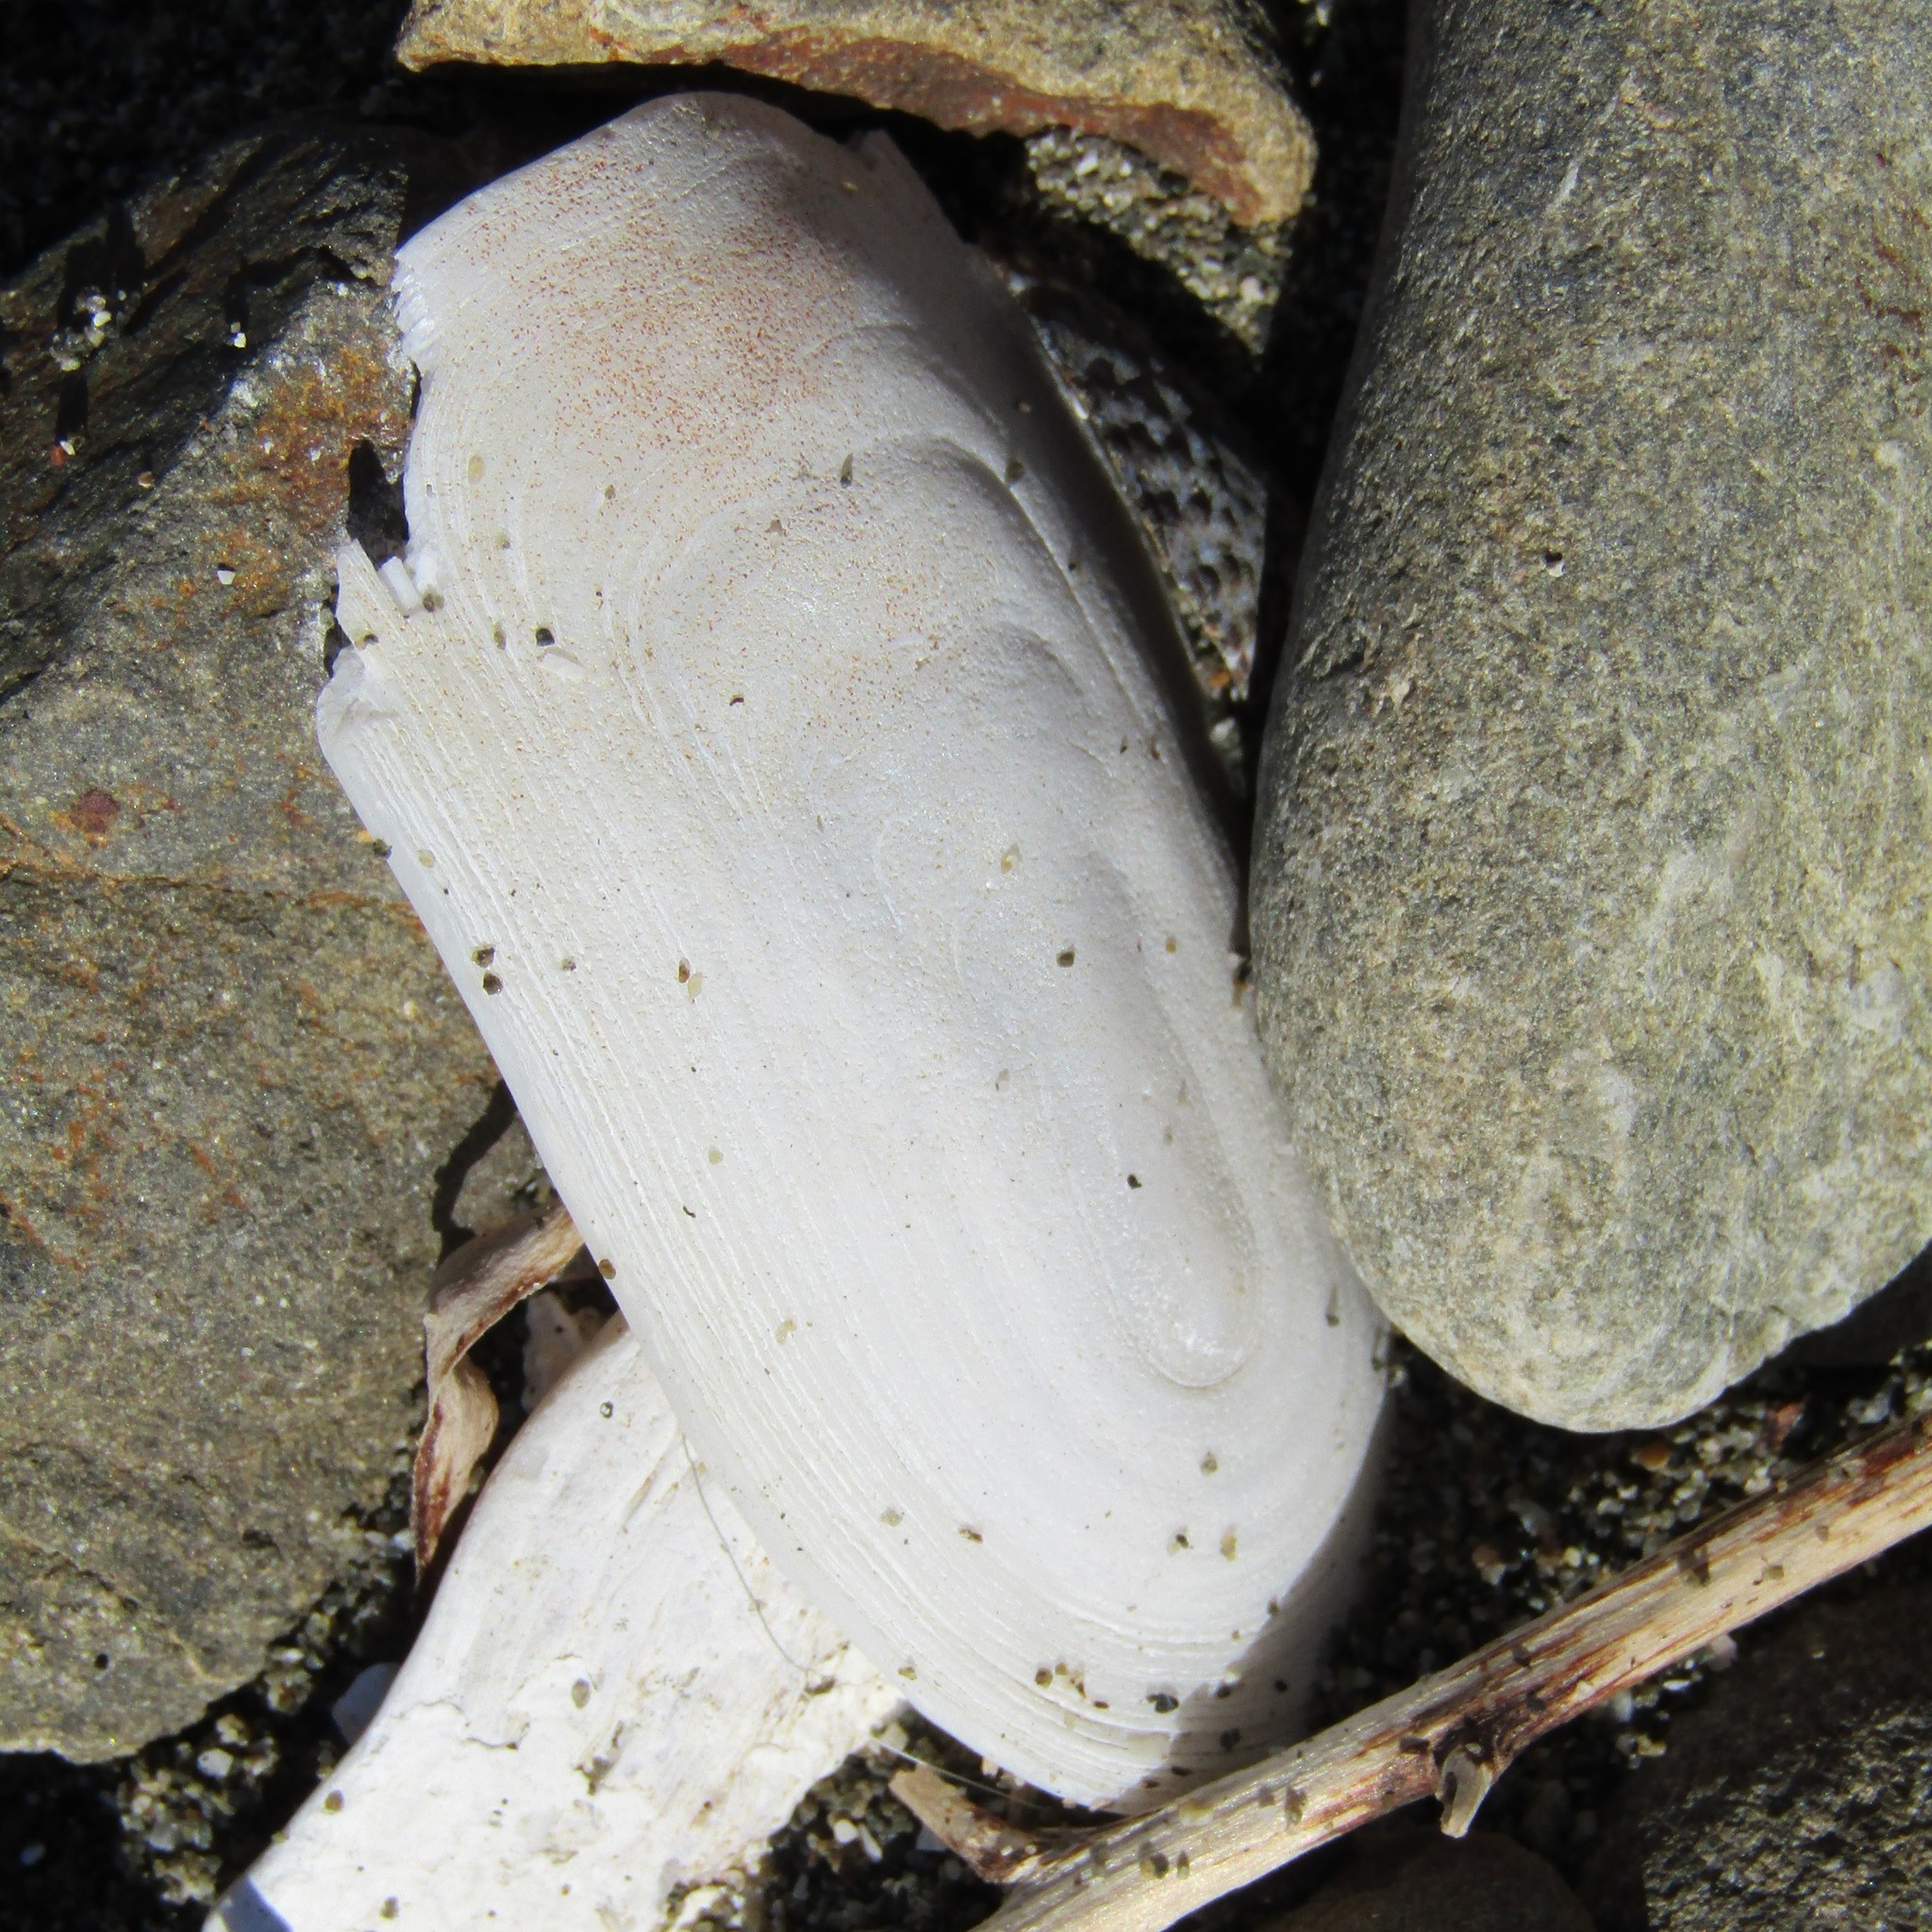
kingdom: Animalia
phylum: Mollusca
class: Gastropoda
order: Lepetellida
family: Fissurellidae
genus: Scutus
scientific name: Scutus breviculus
